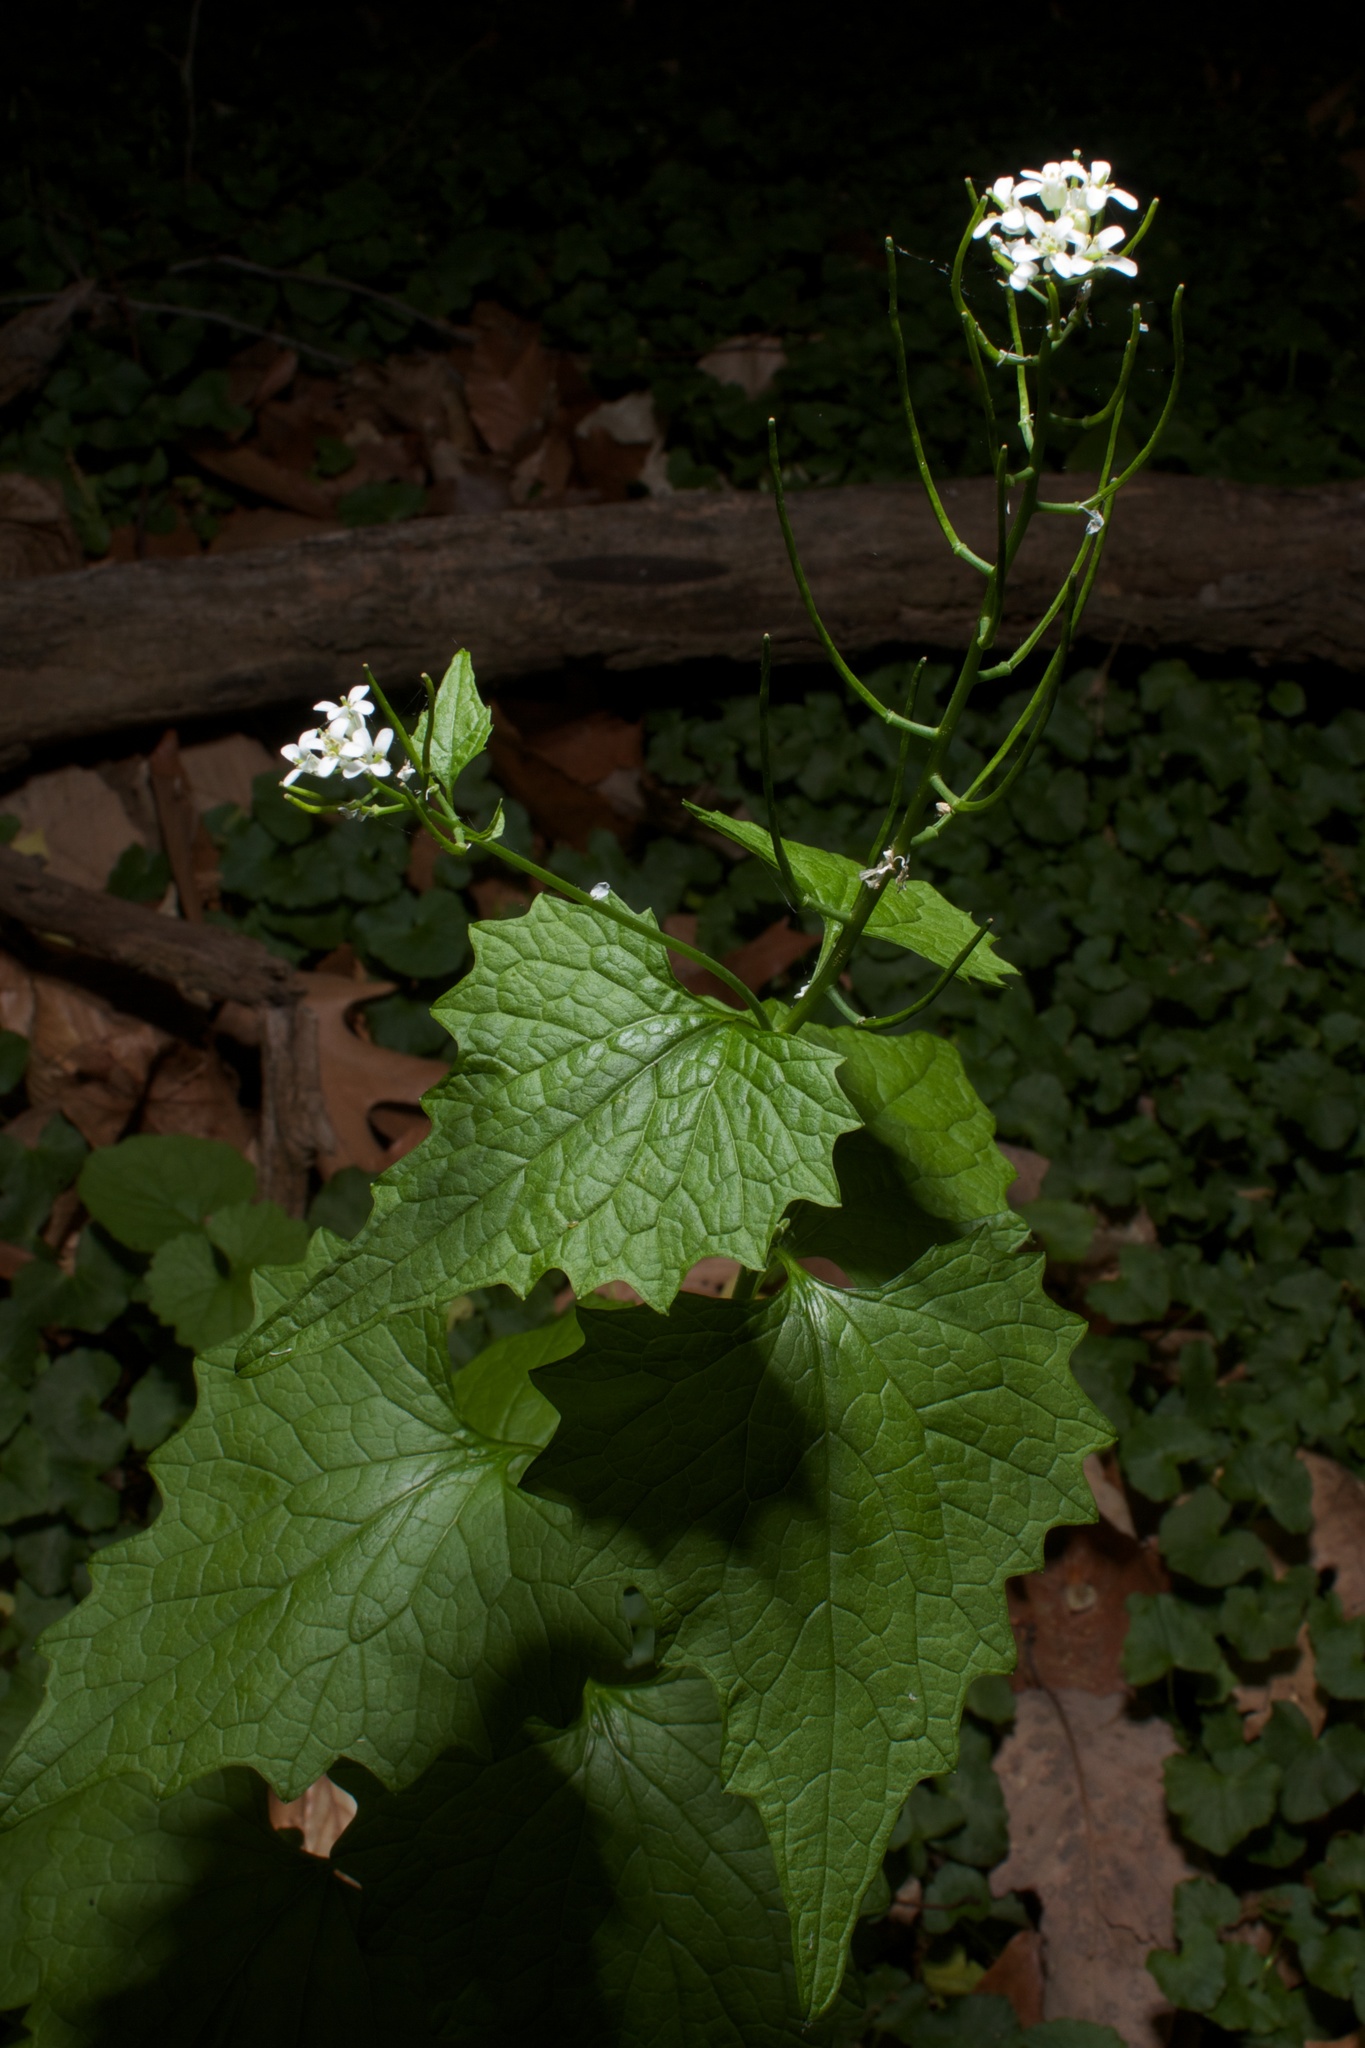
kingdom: Plantae
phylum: Tracheophyta
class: Magnoliopsida
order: Brassicales
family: Brassicaceae
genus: Alliaria
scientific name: Alliaria petiolata
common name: Garlic mustard
